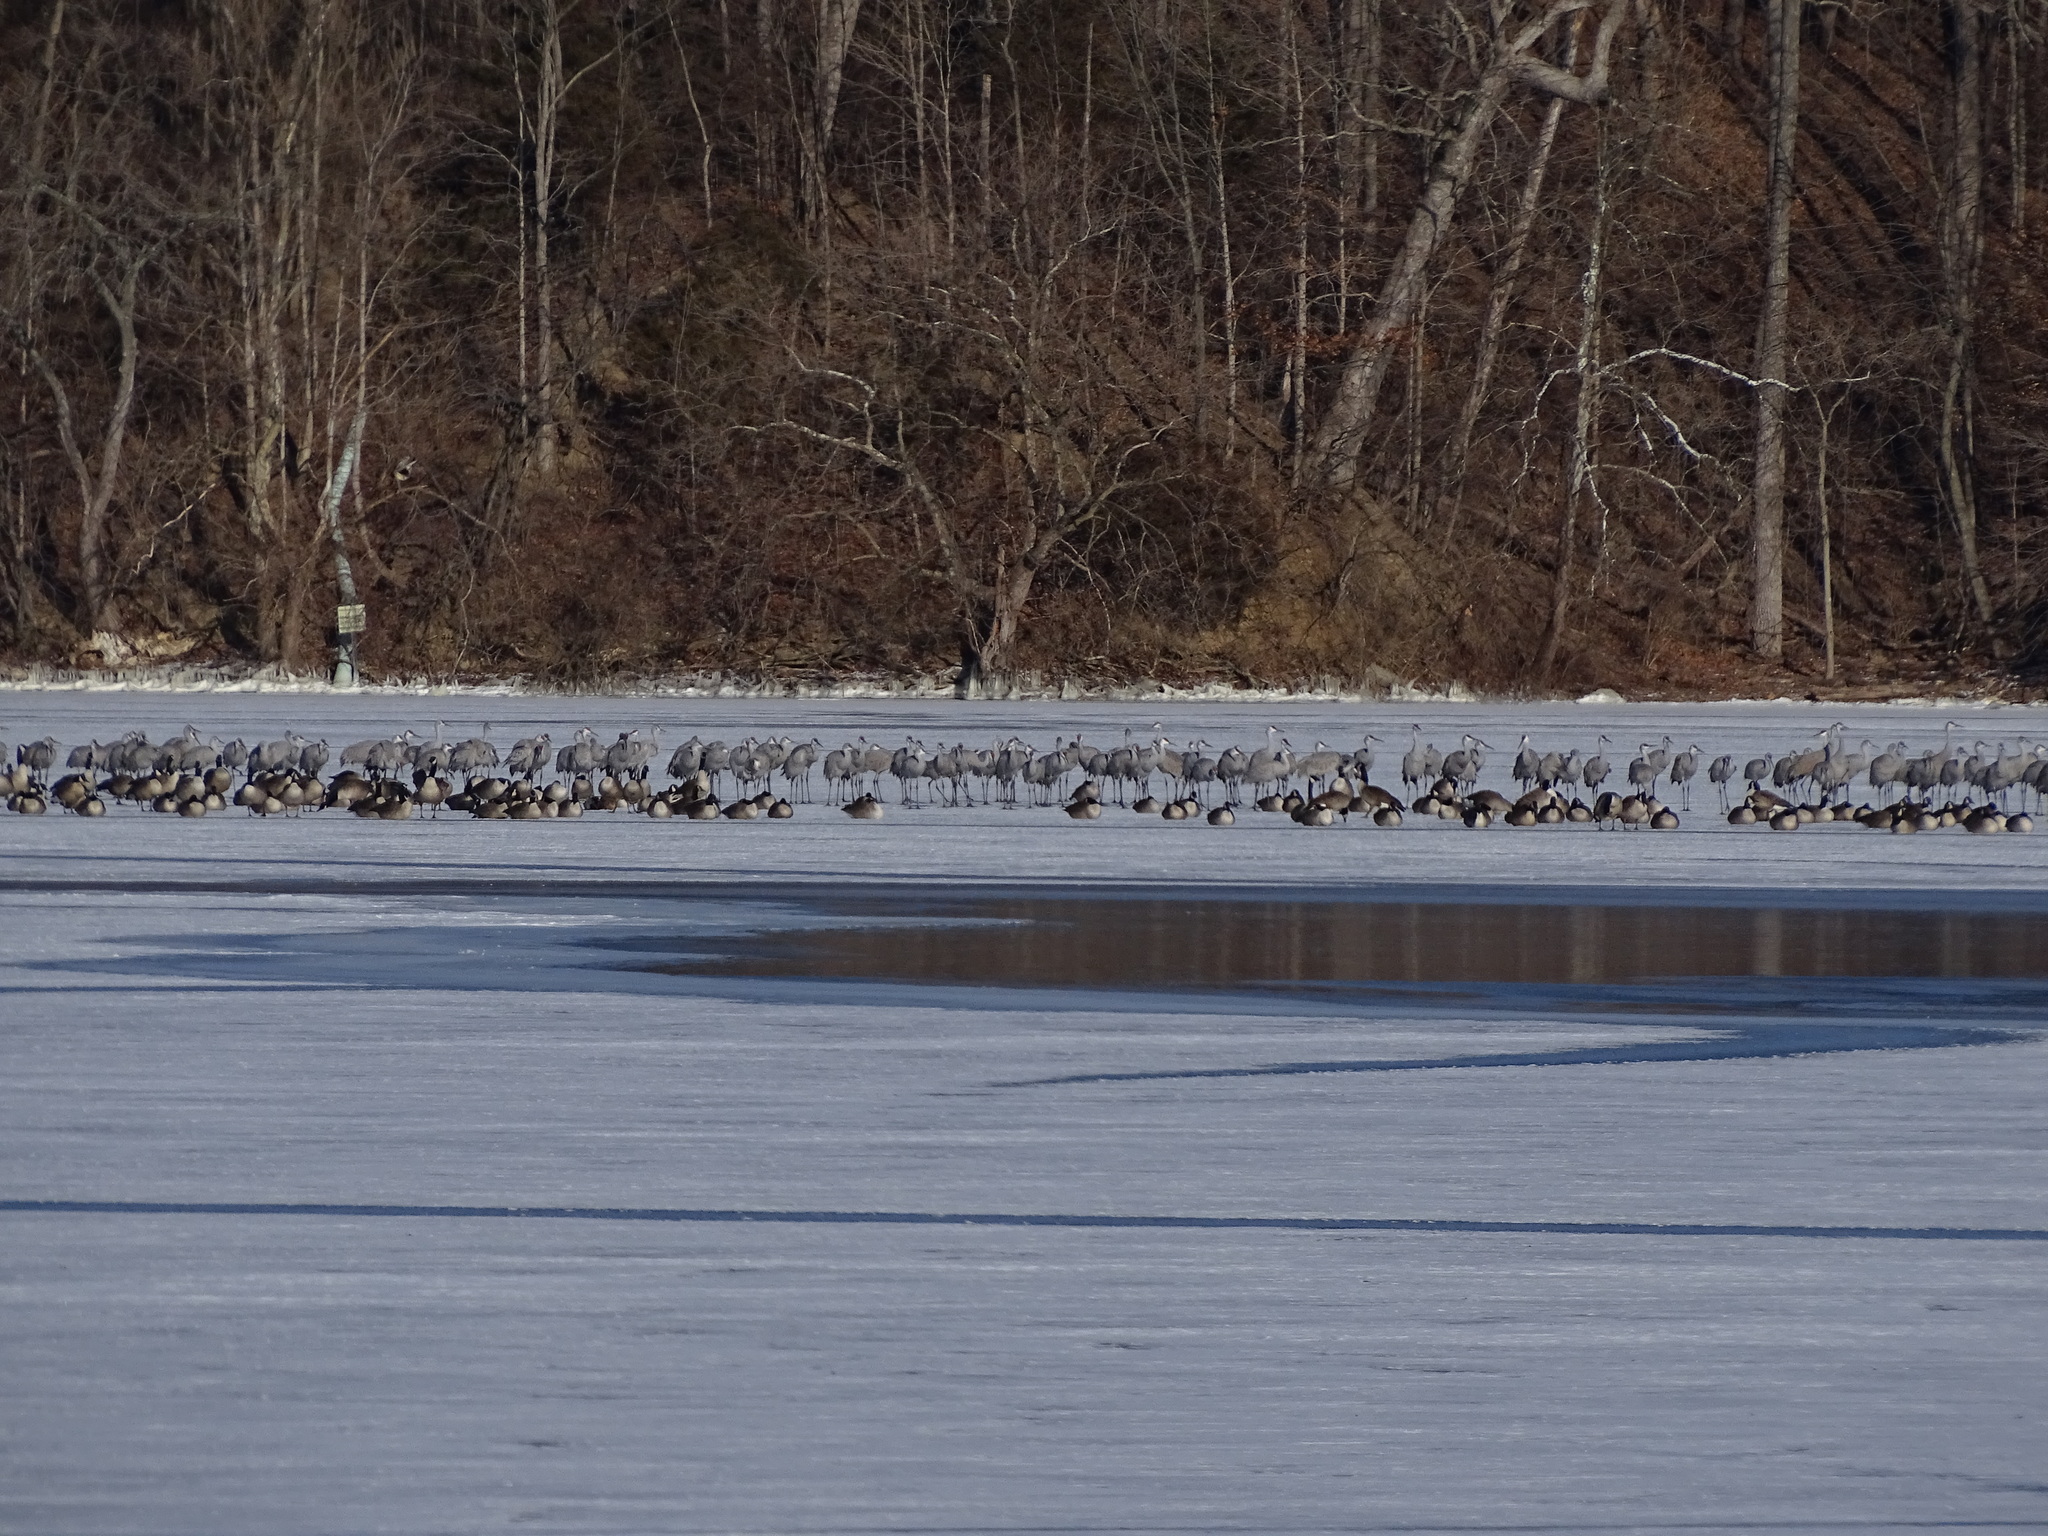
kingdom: Animalia
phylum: Chordata
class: Aves
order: Gruiformes
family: Gruidae
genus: Grus
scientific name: Grus canadensis
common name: Sandhill crane
